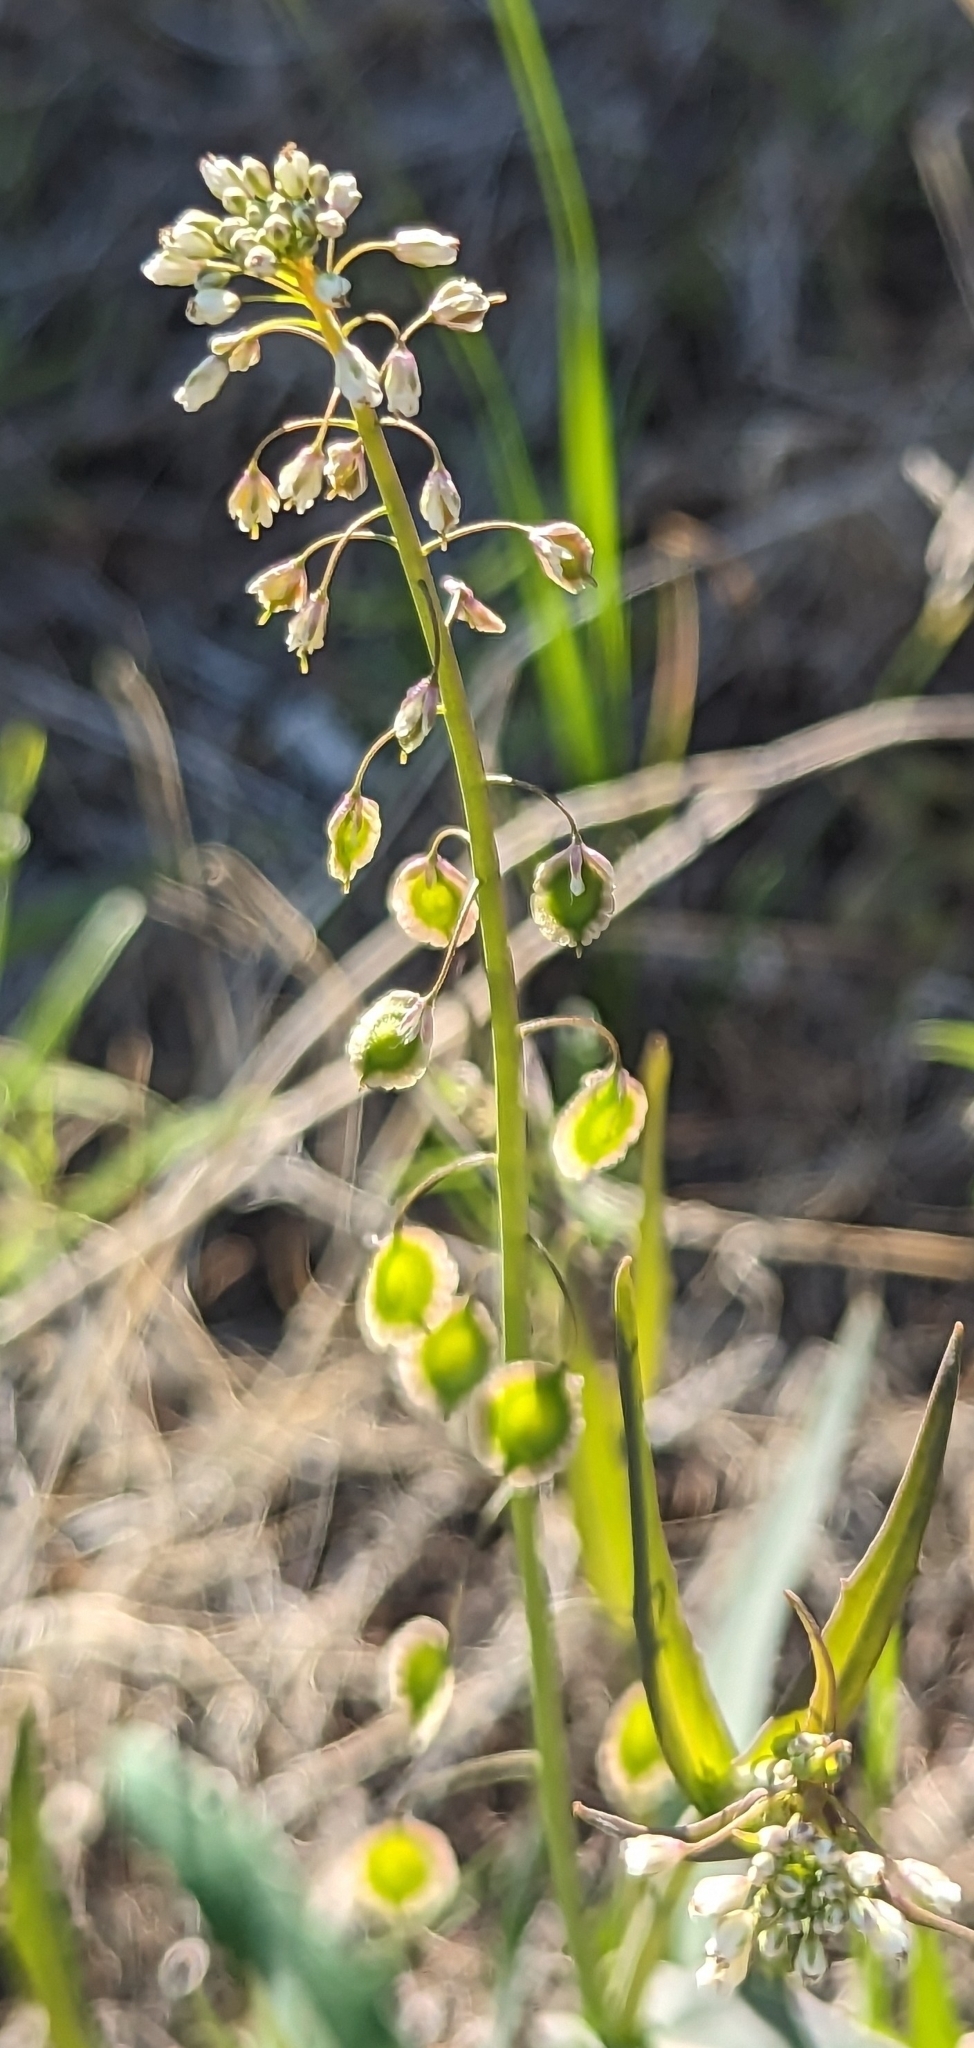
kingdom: Plantae
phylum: Tracheophyta
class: Magnoliopsida
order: Brassicales
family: Brassicaceae
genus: Thysanocarpus
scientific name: Thysanocarpus curvipes
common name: Sand fringepod
